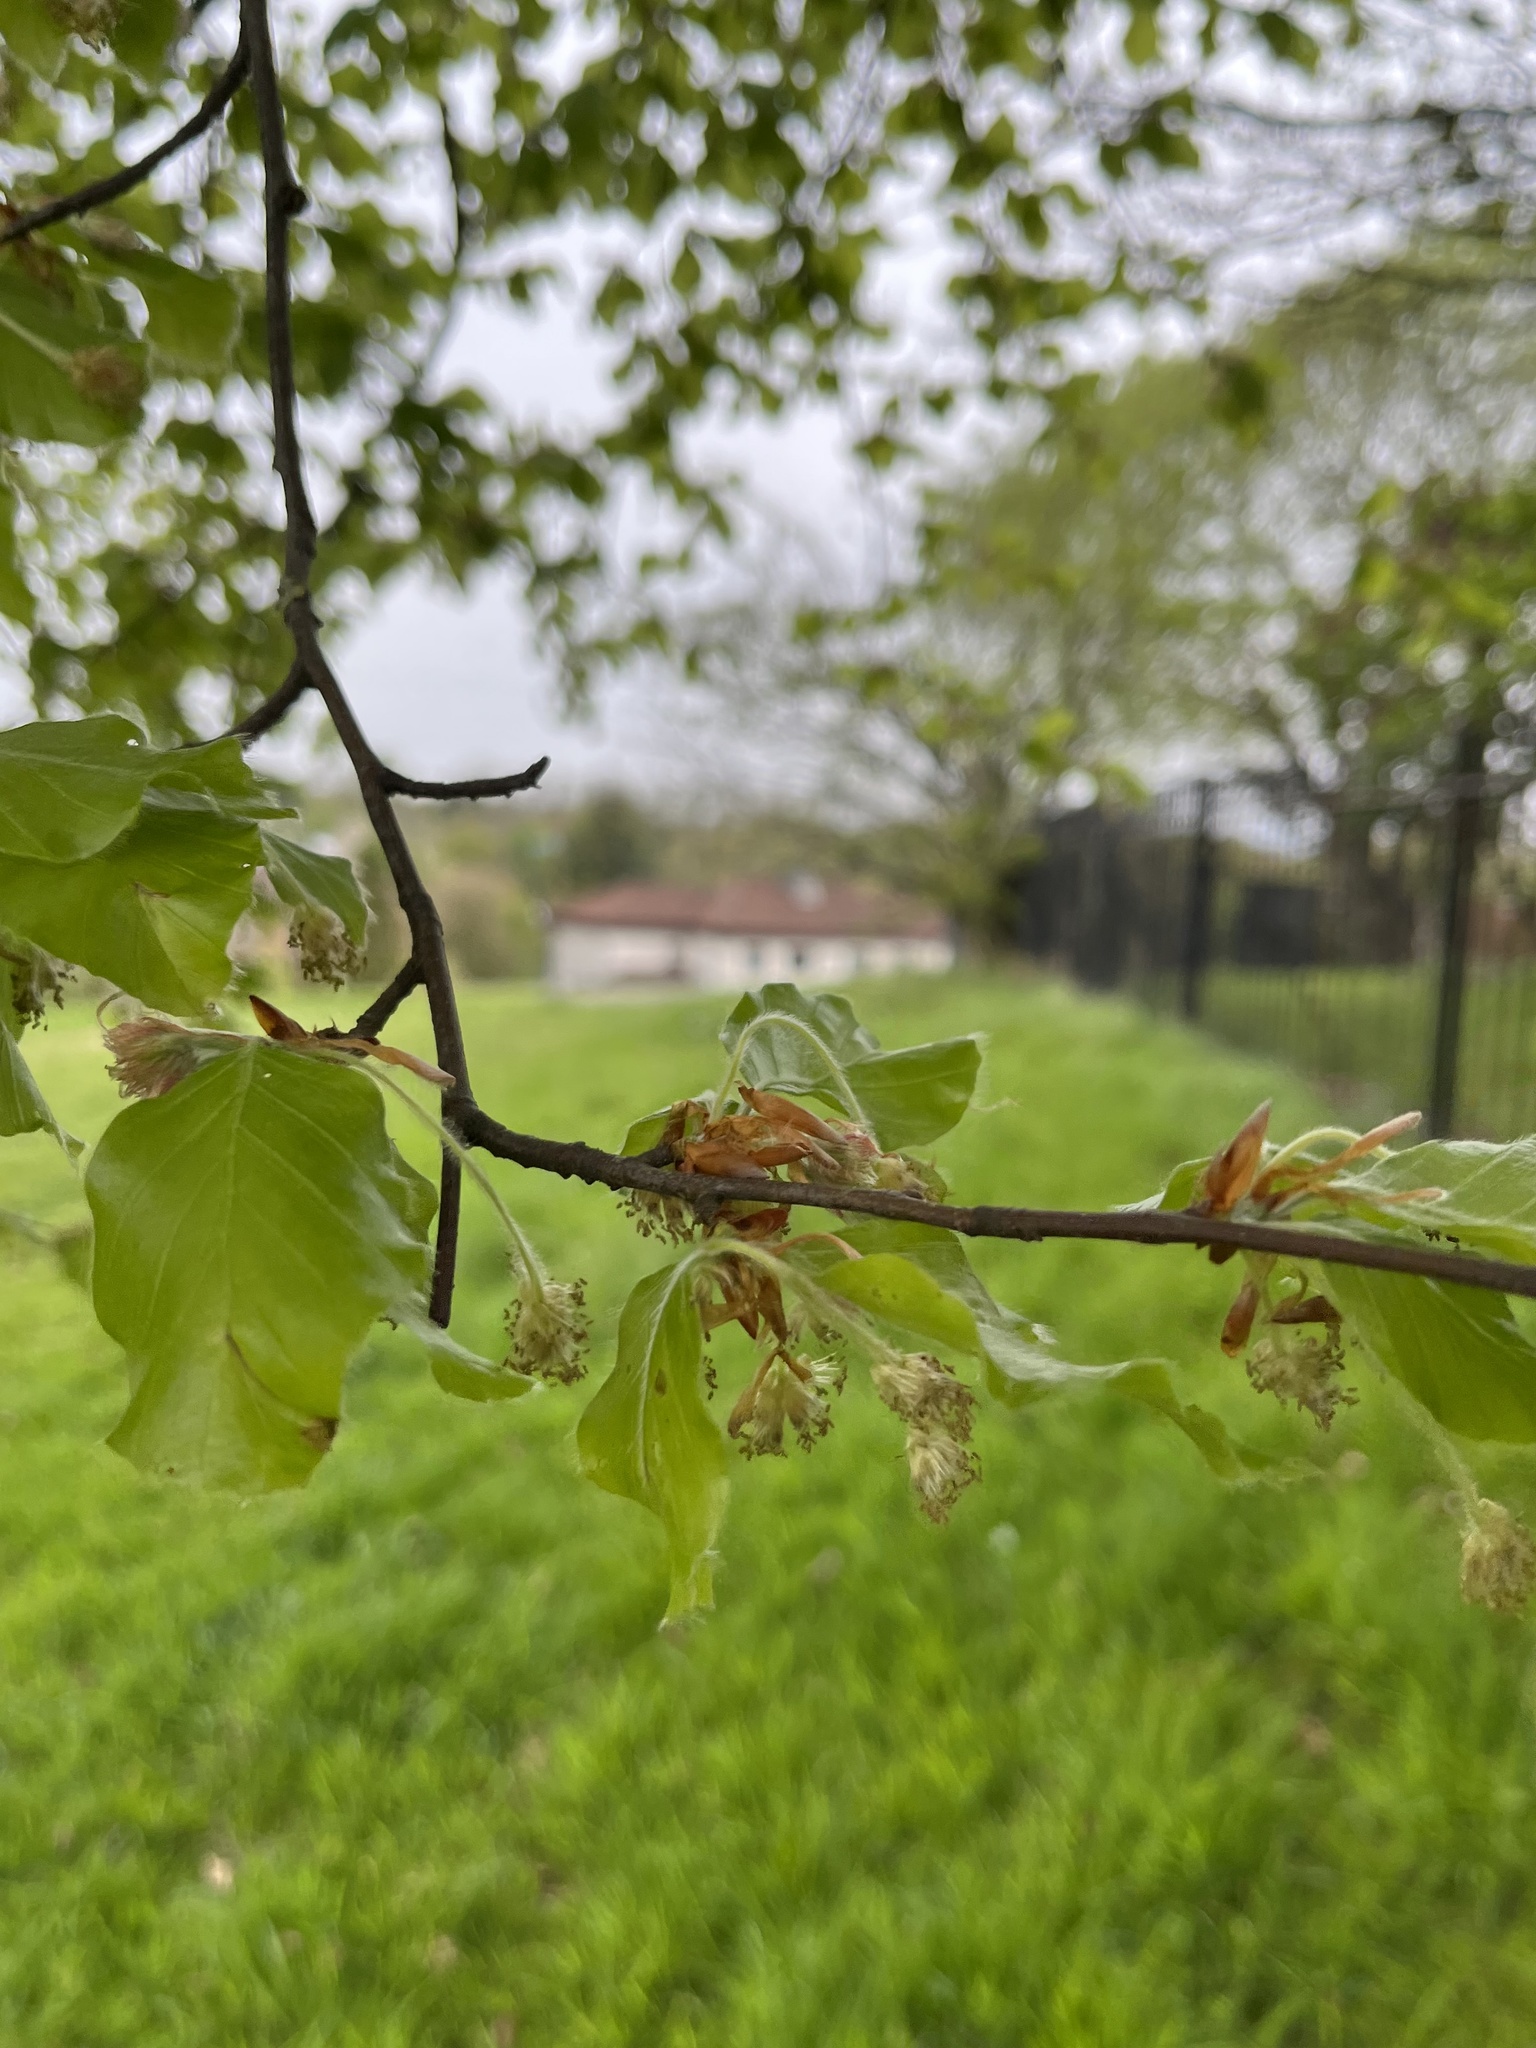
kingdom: Plantae
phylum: Tracheophyta
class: Magnoliopsida
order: Fagales
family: Fagaceae
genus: Fagus
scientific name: Fagus sylvatica
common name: Beech
